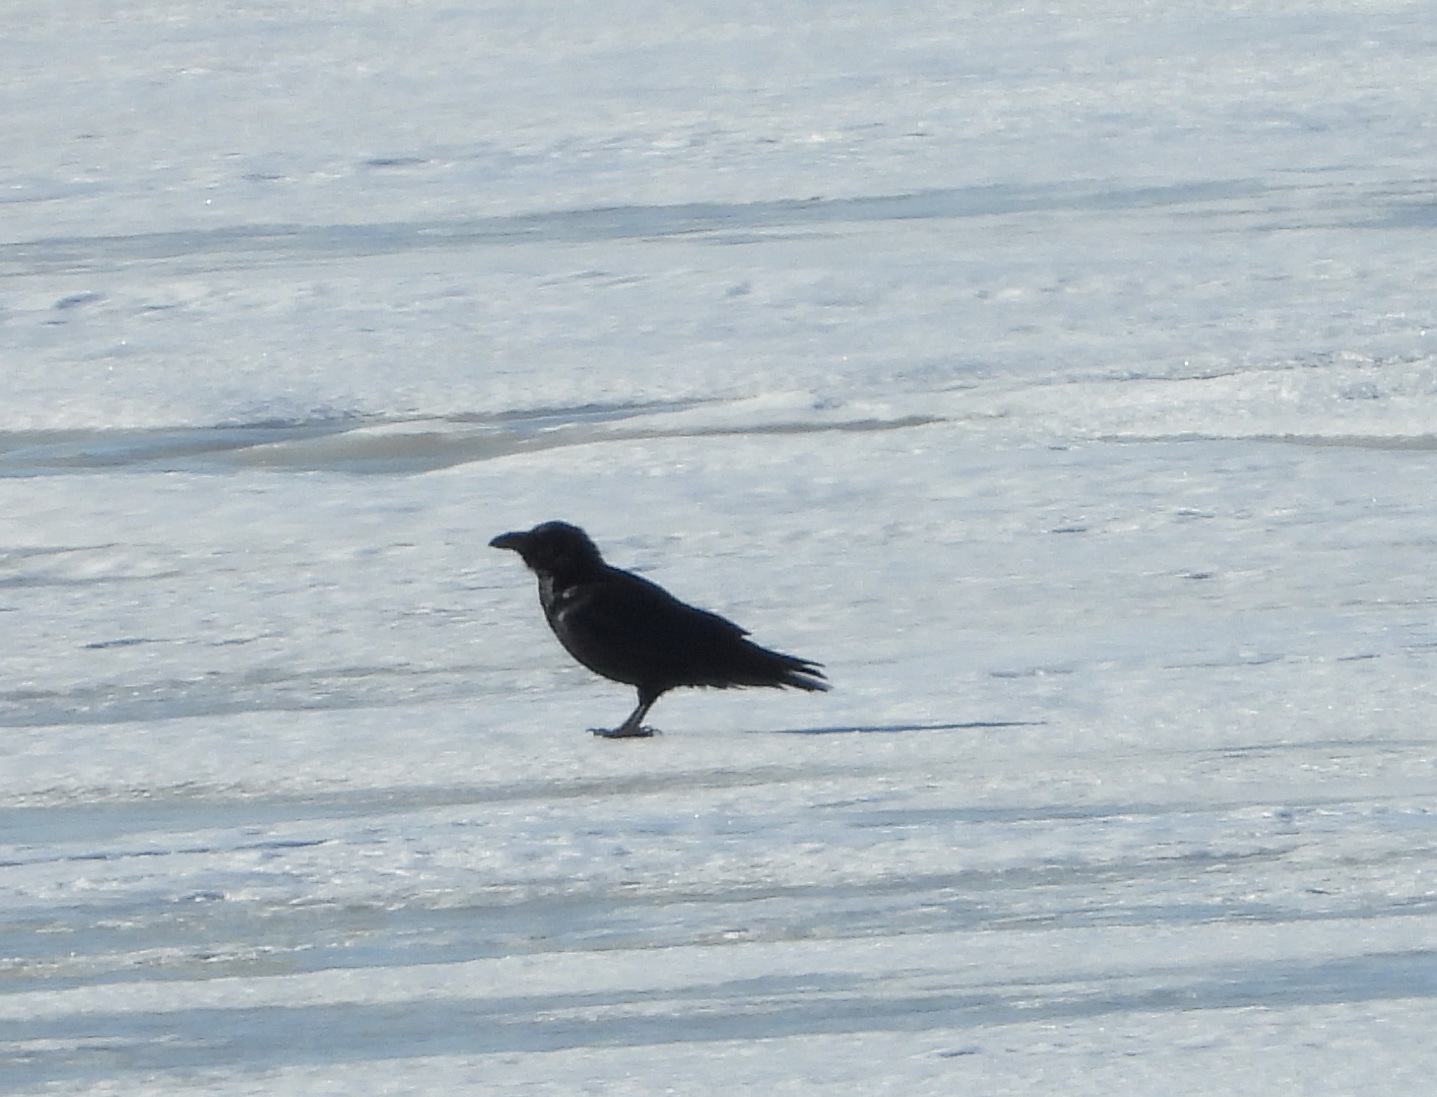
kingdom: Animalia
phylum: Chordata
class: Aves
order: Passeriformes
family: Corvidae
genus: Corvus
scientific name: Corvus corax
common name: Common raven
